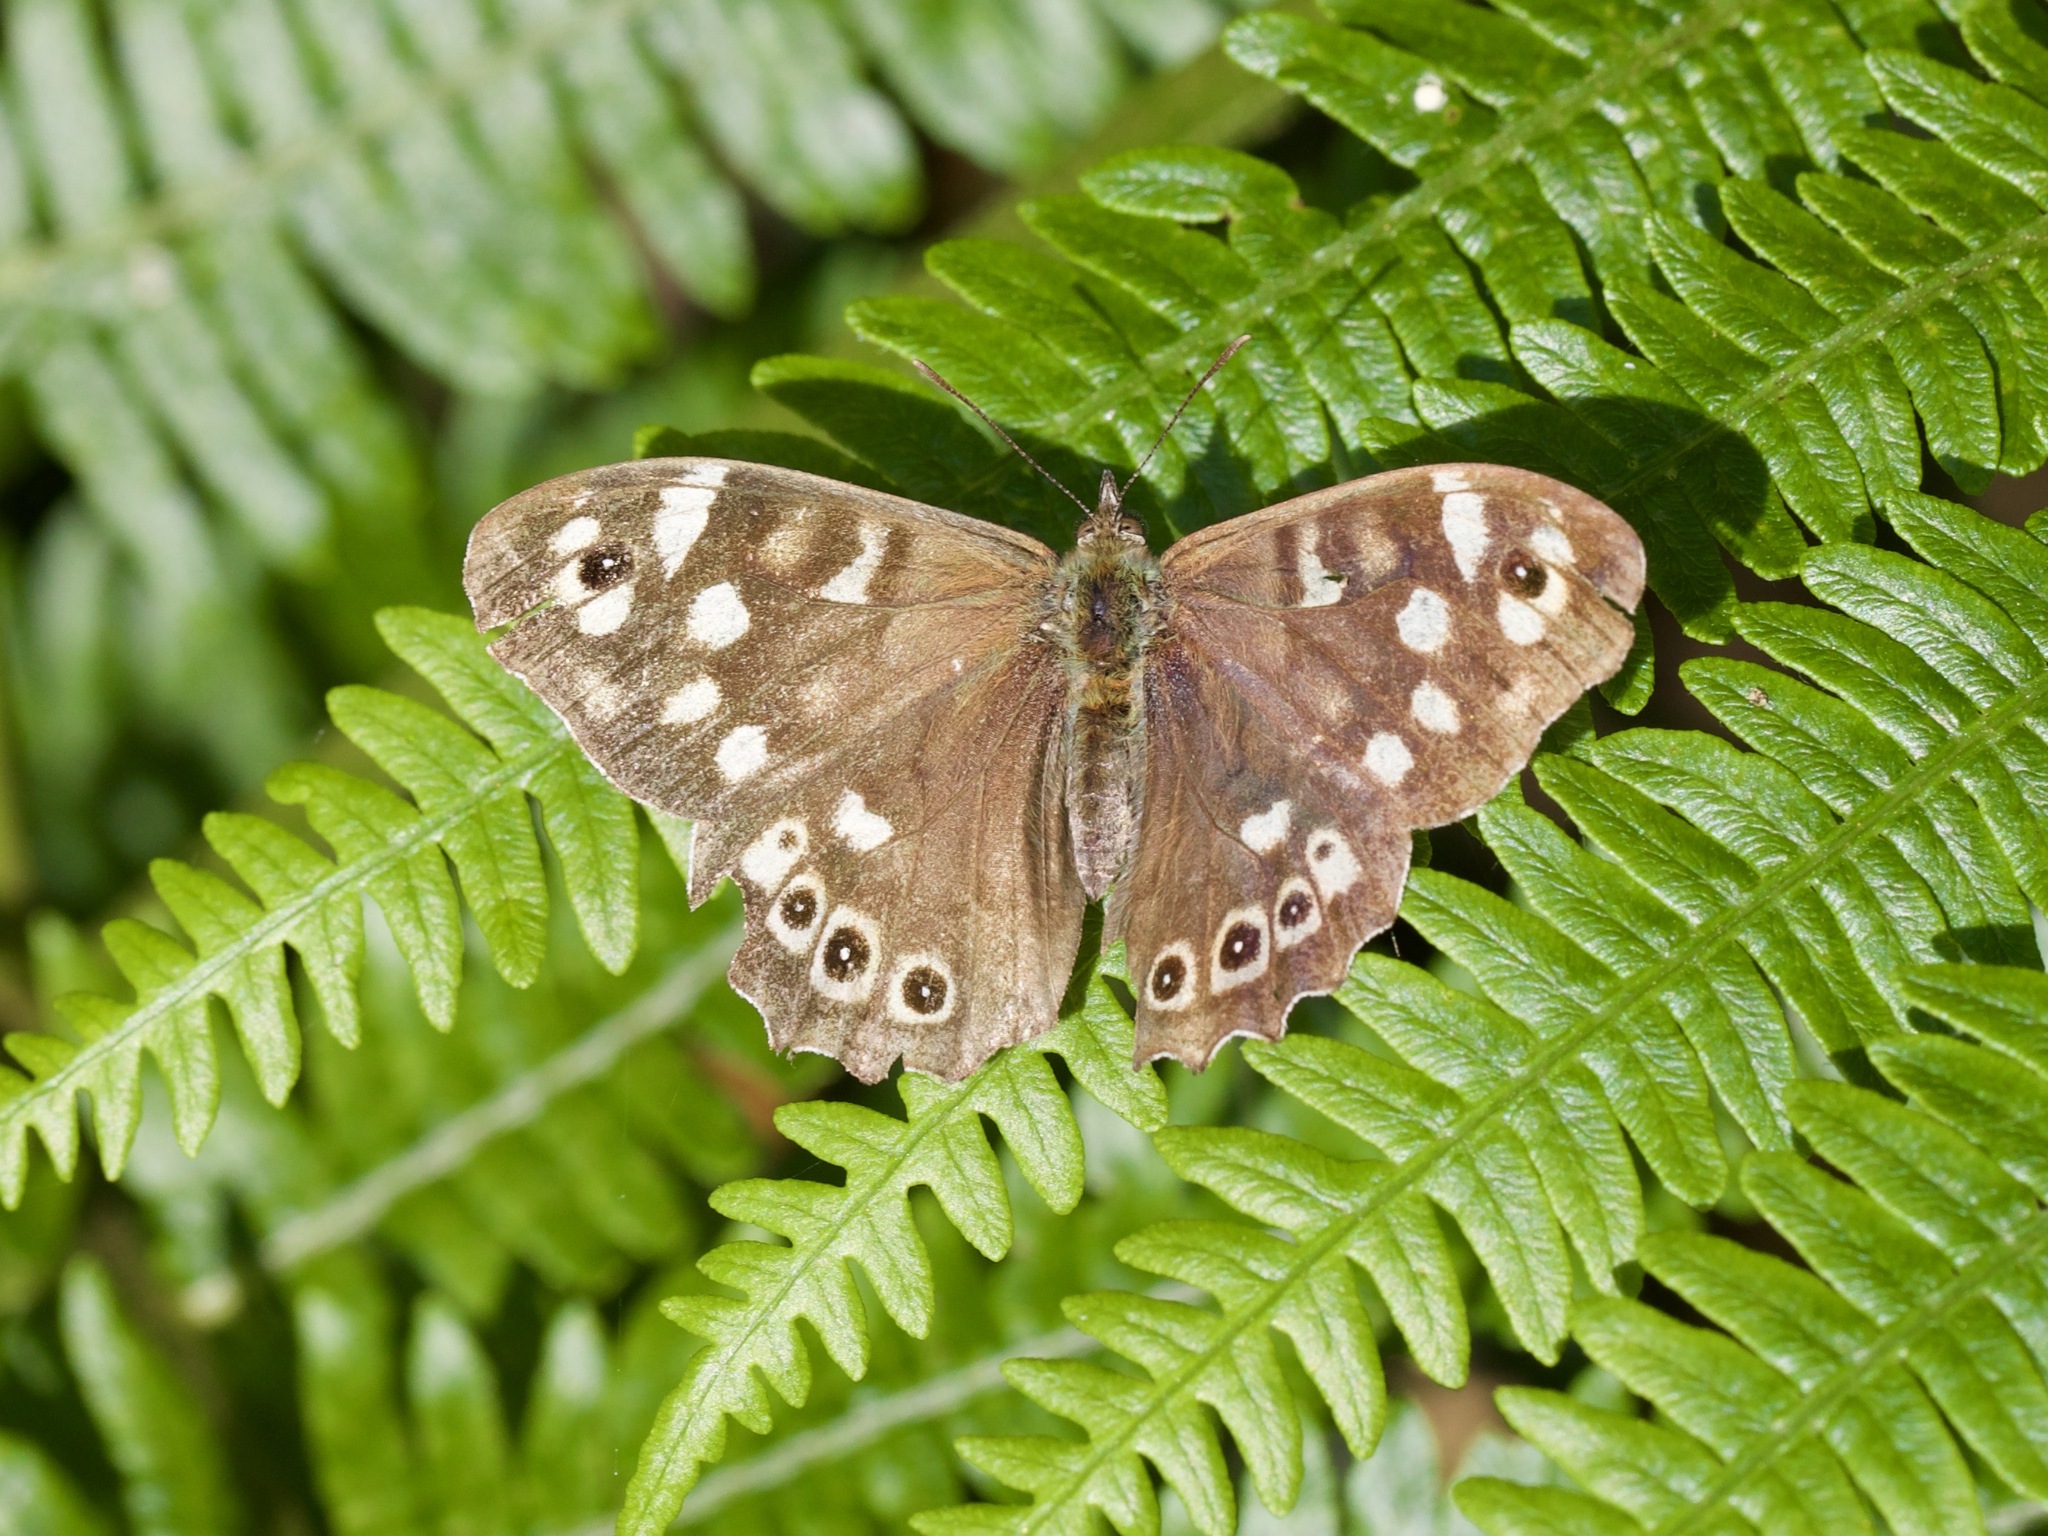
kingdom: Animalia
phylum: Arthropoda
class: Insecta
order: Lepidoptera
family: Nymphalidae
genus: Pararge
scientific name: Pararge aegeria
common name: Speckled wood
